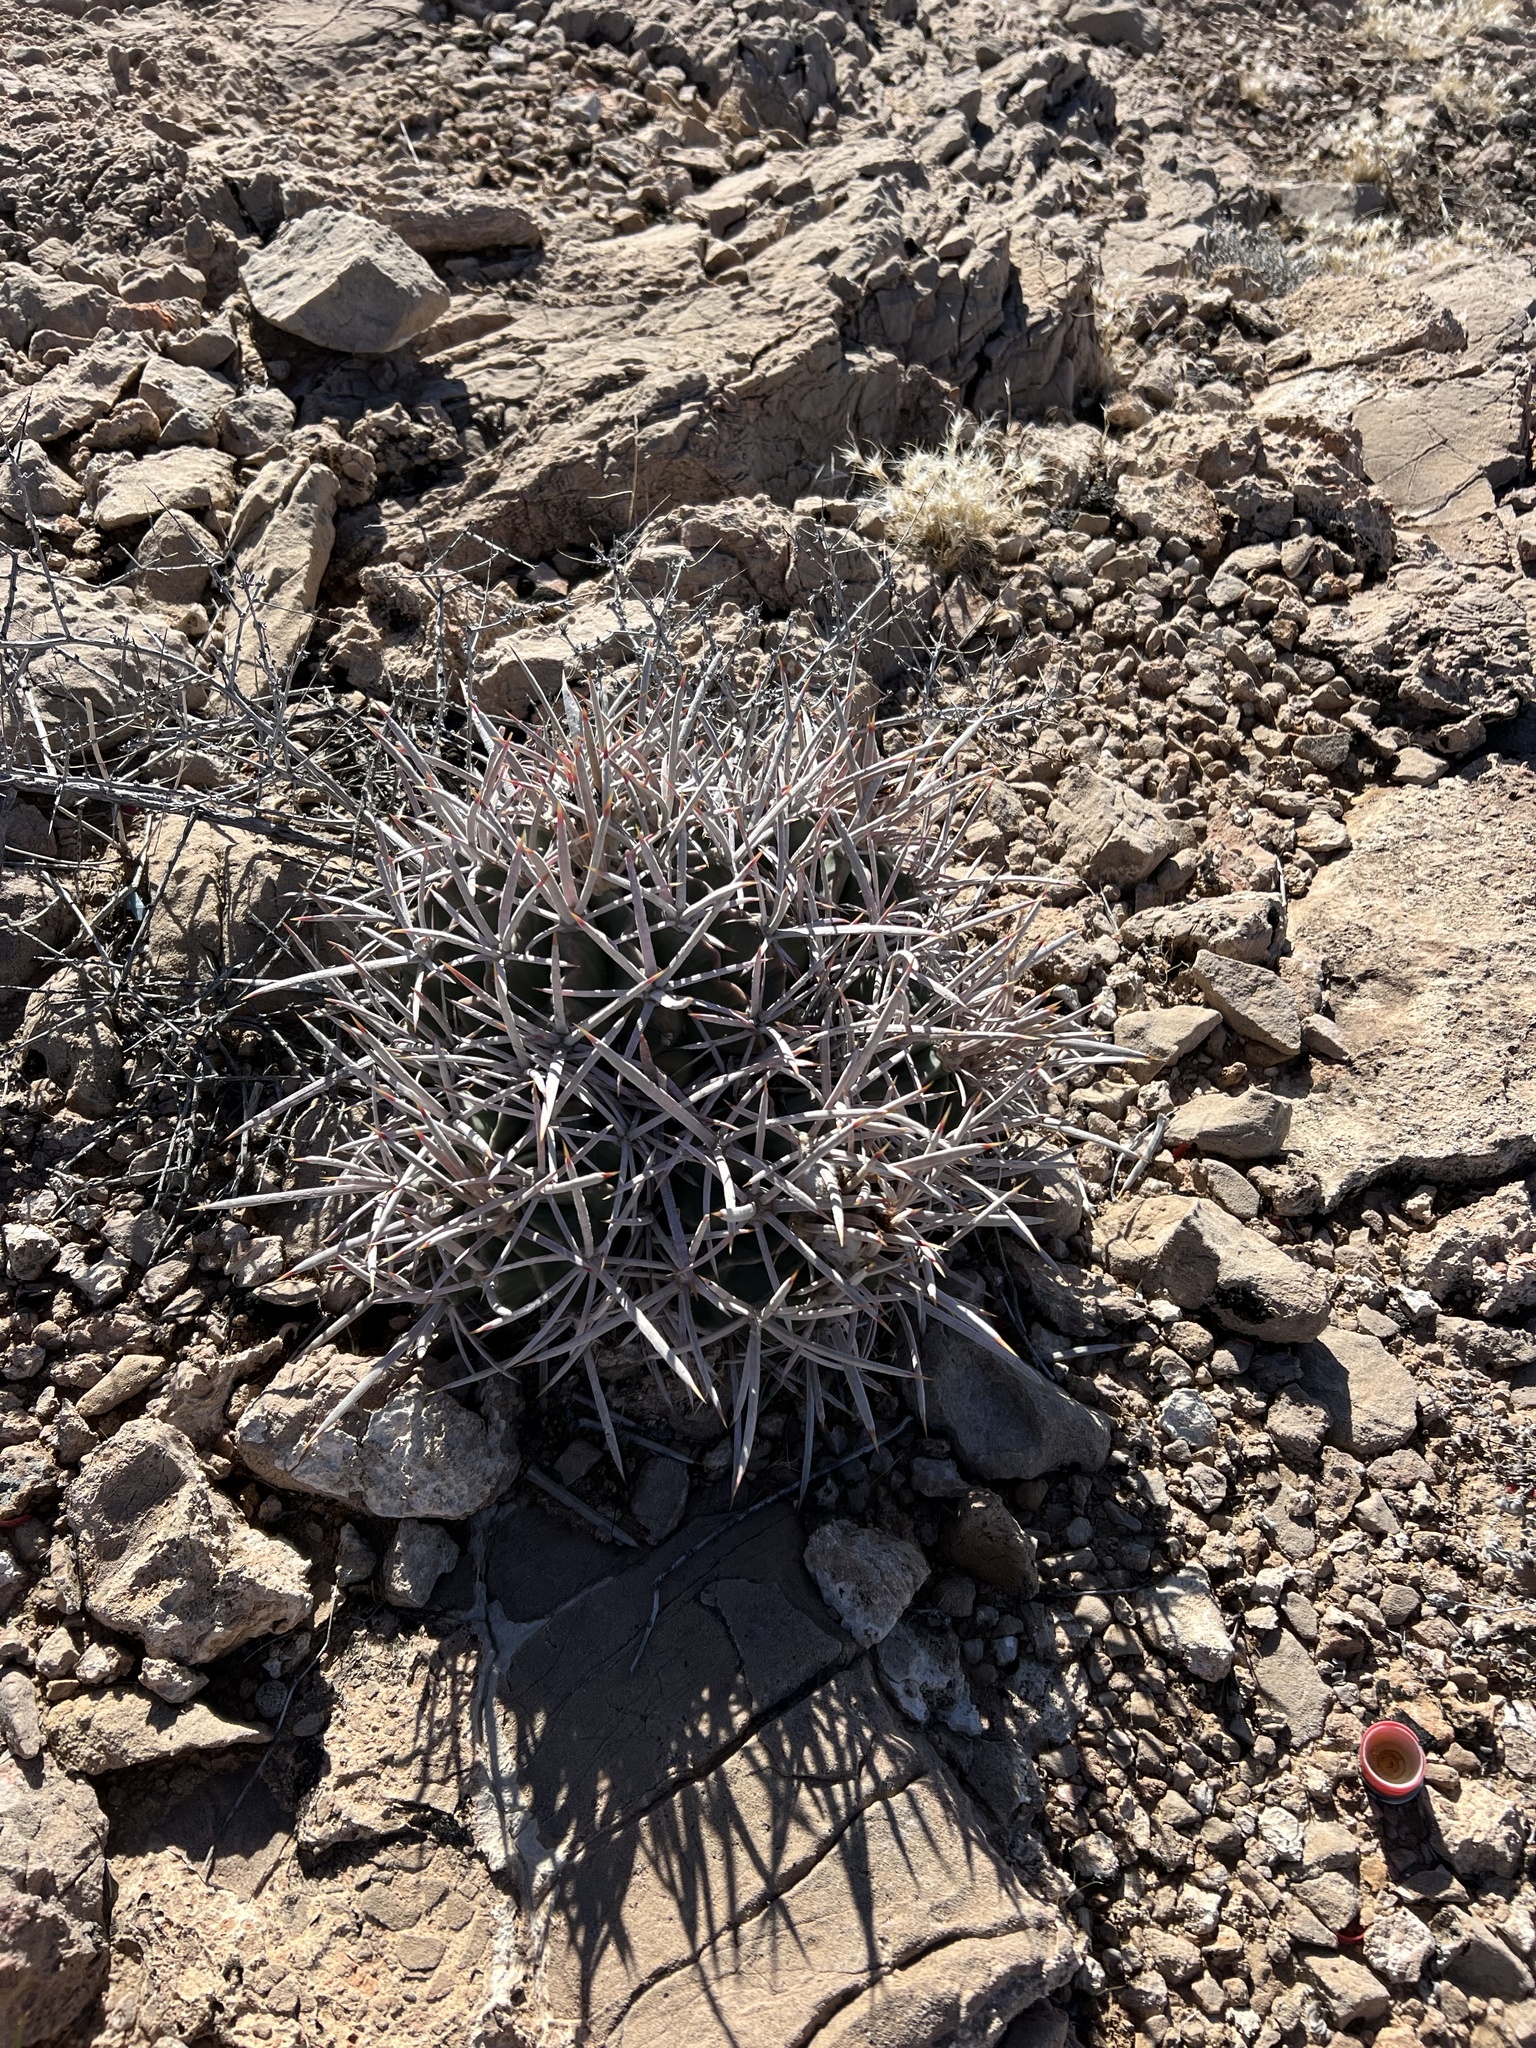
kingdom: Plantae
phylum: Tracheophyta
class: Magnoliopsida
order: Caryophyllales
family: Cactaceae
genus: Echinocactus
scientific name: Echinocactus polycephalus
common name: Cottontop cactus
